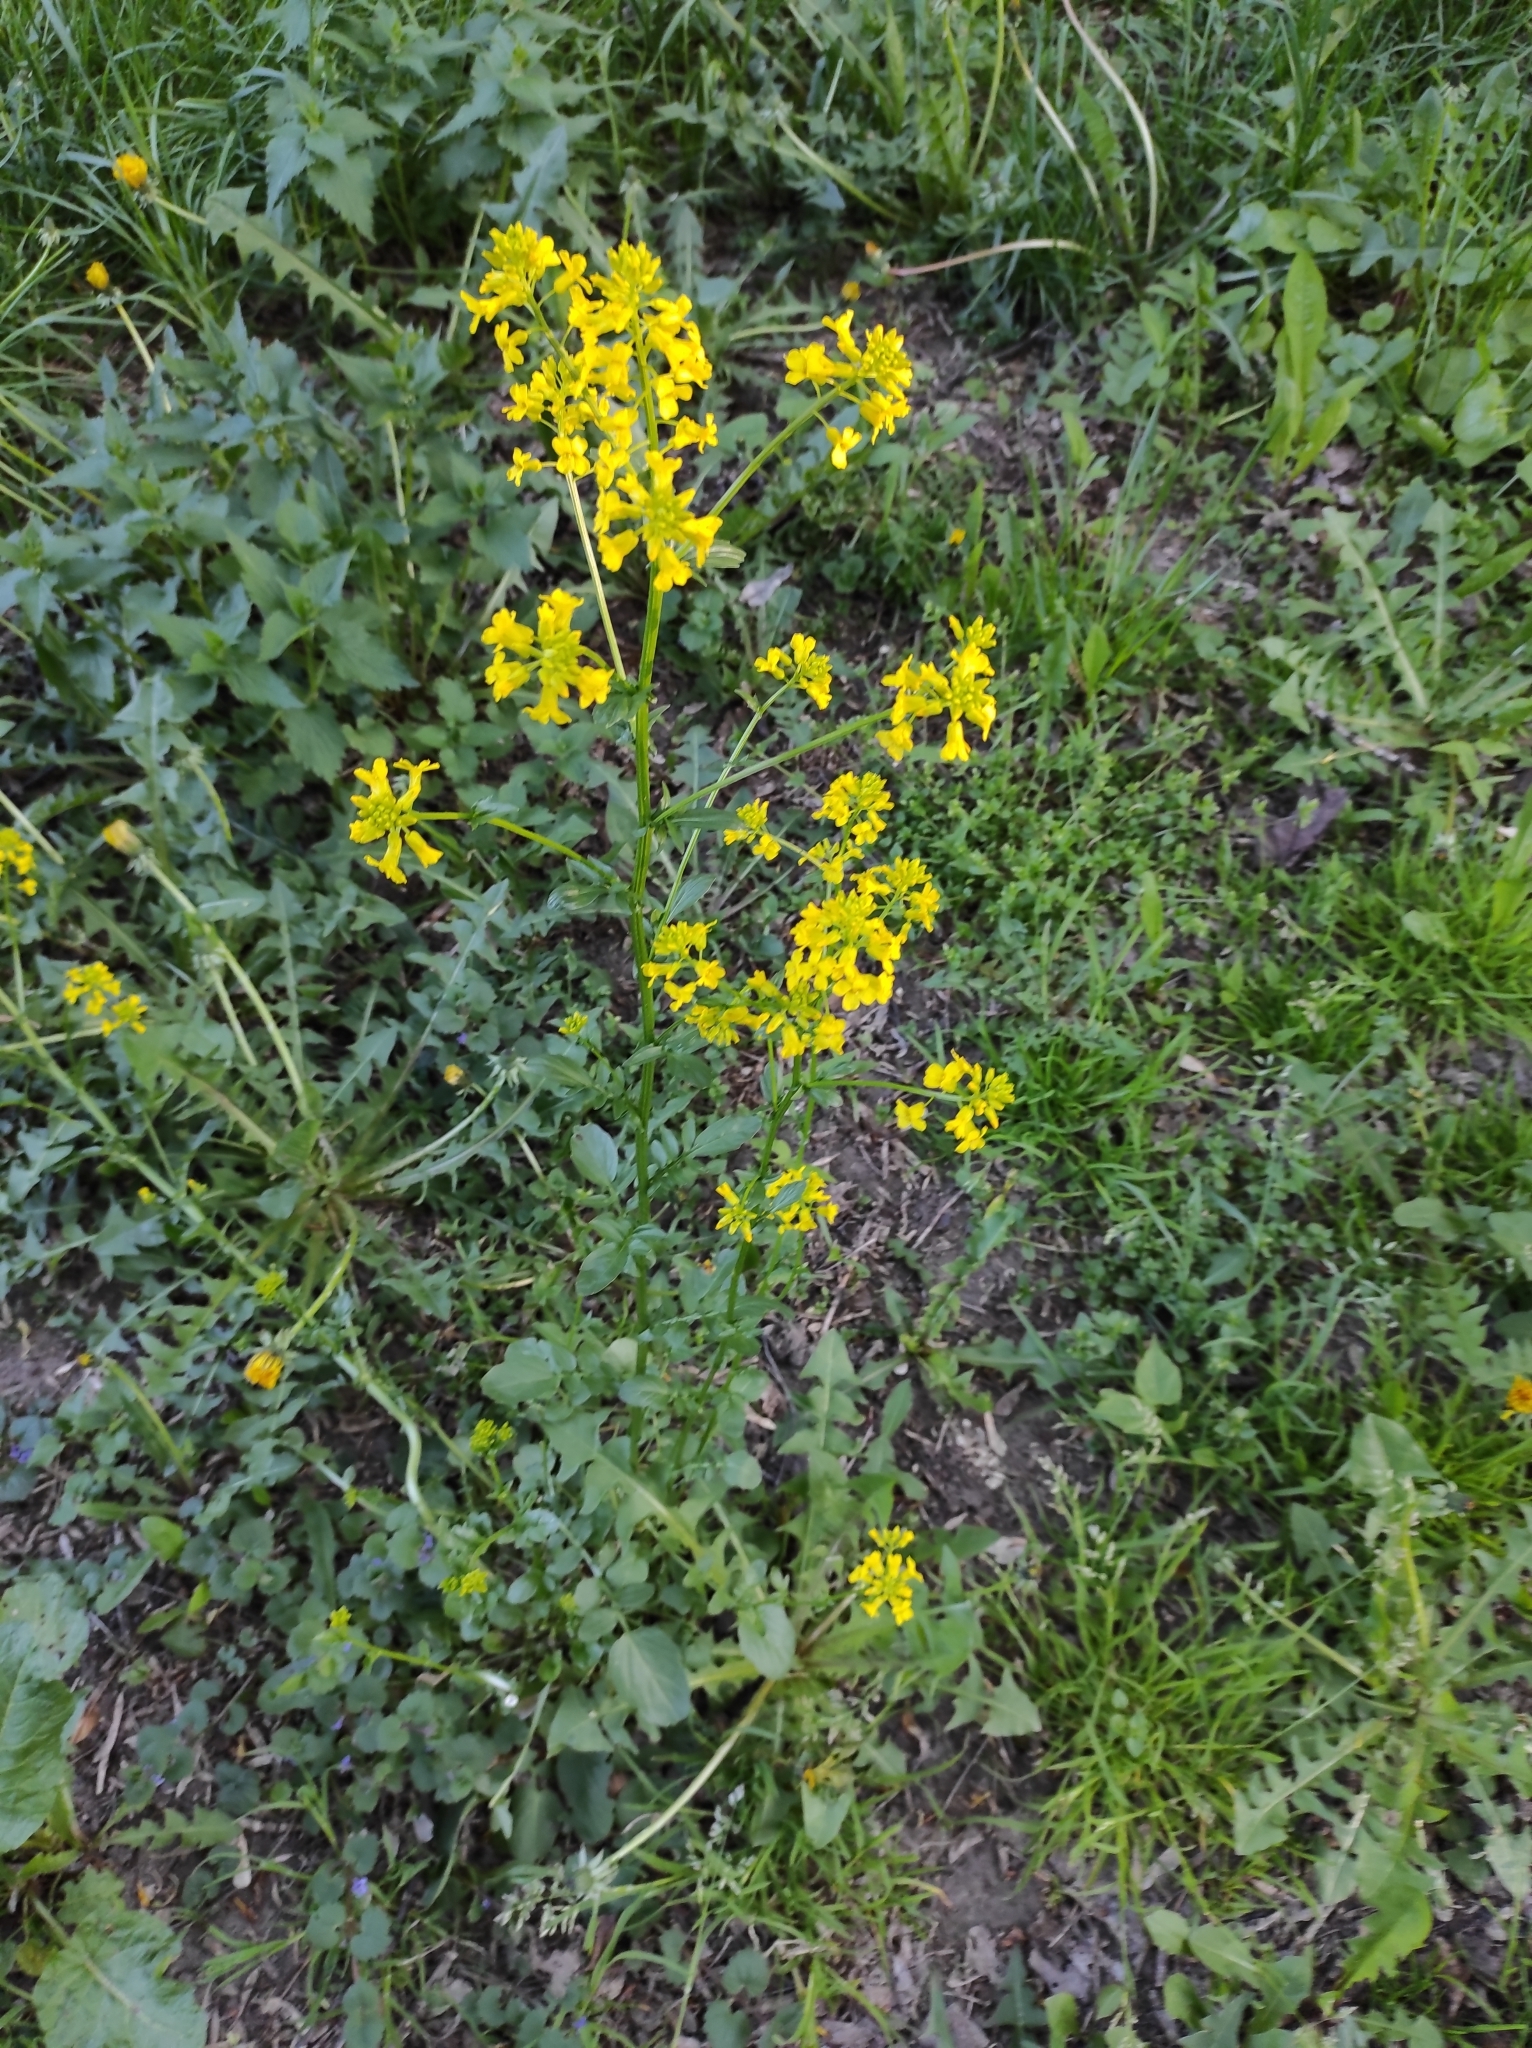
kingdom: Plantae
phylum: Tracheophyta
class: Magnoliopsida
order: Brassicales
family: Brassicaceae
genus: Barbarea
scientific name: Barbarea vulgaris
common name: Cressy-greens
